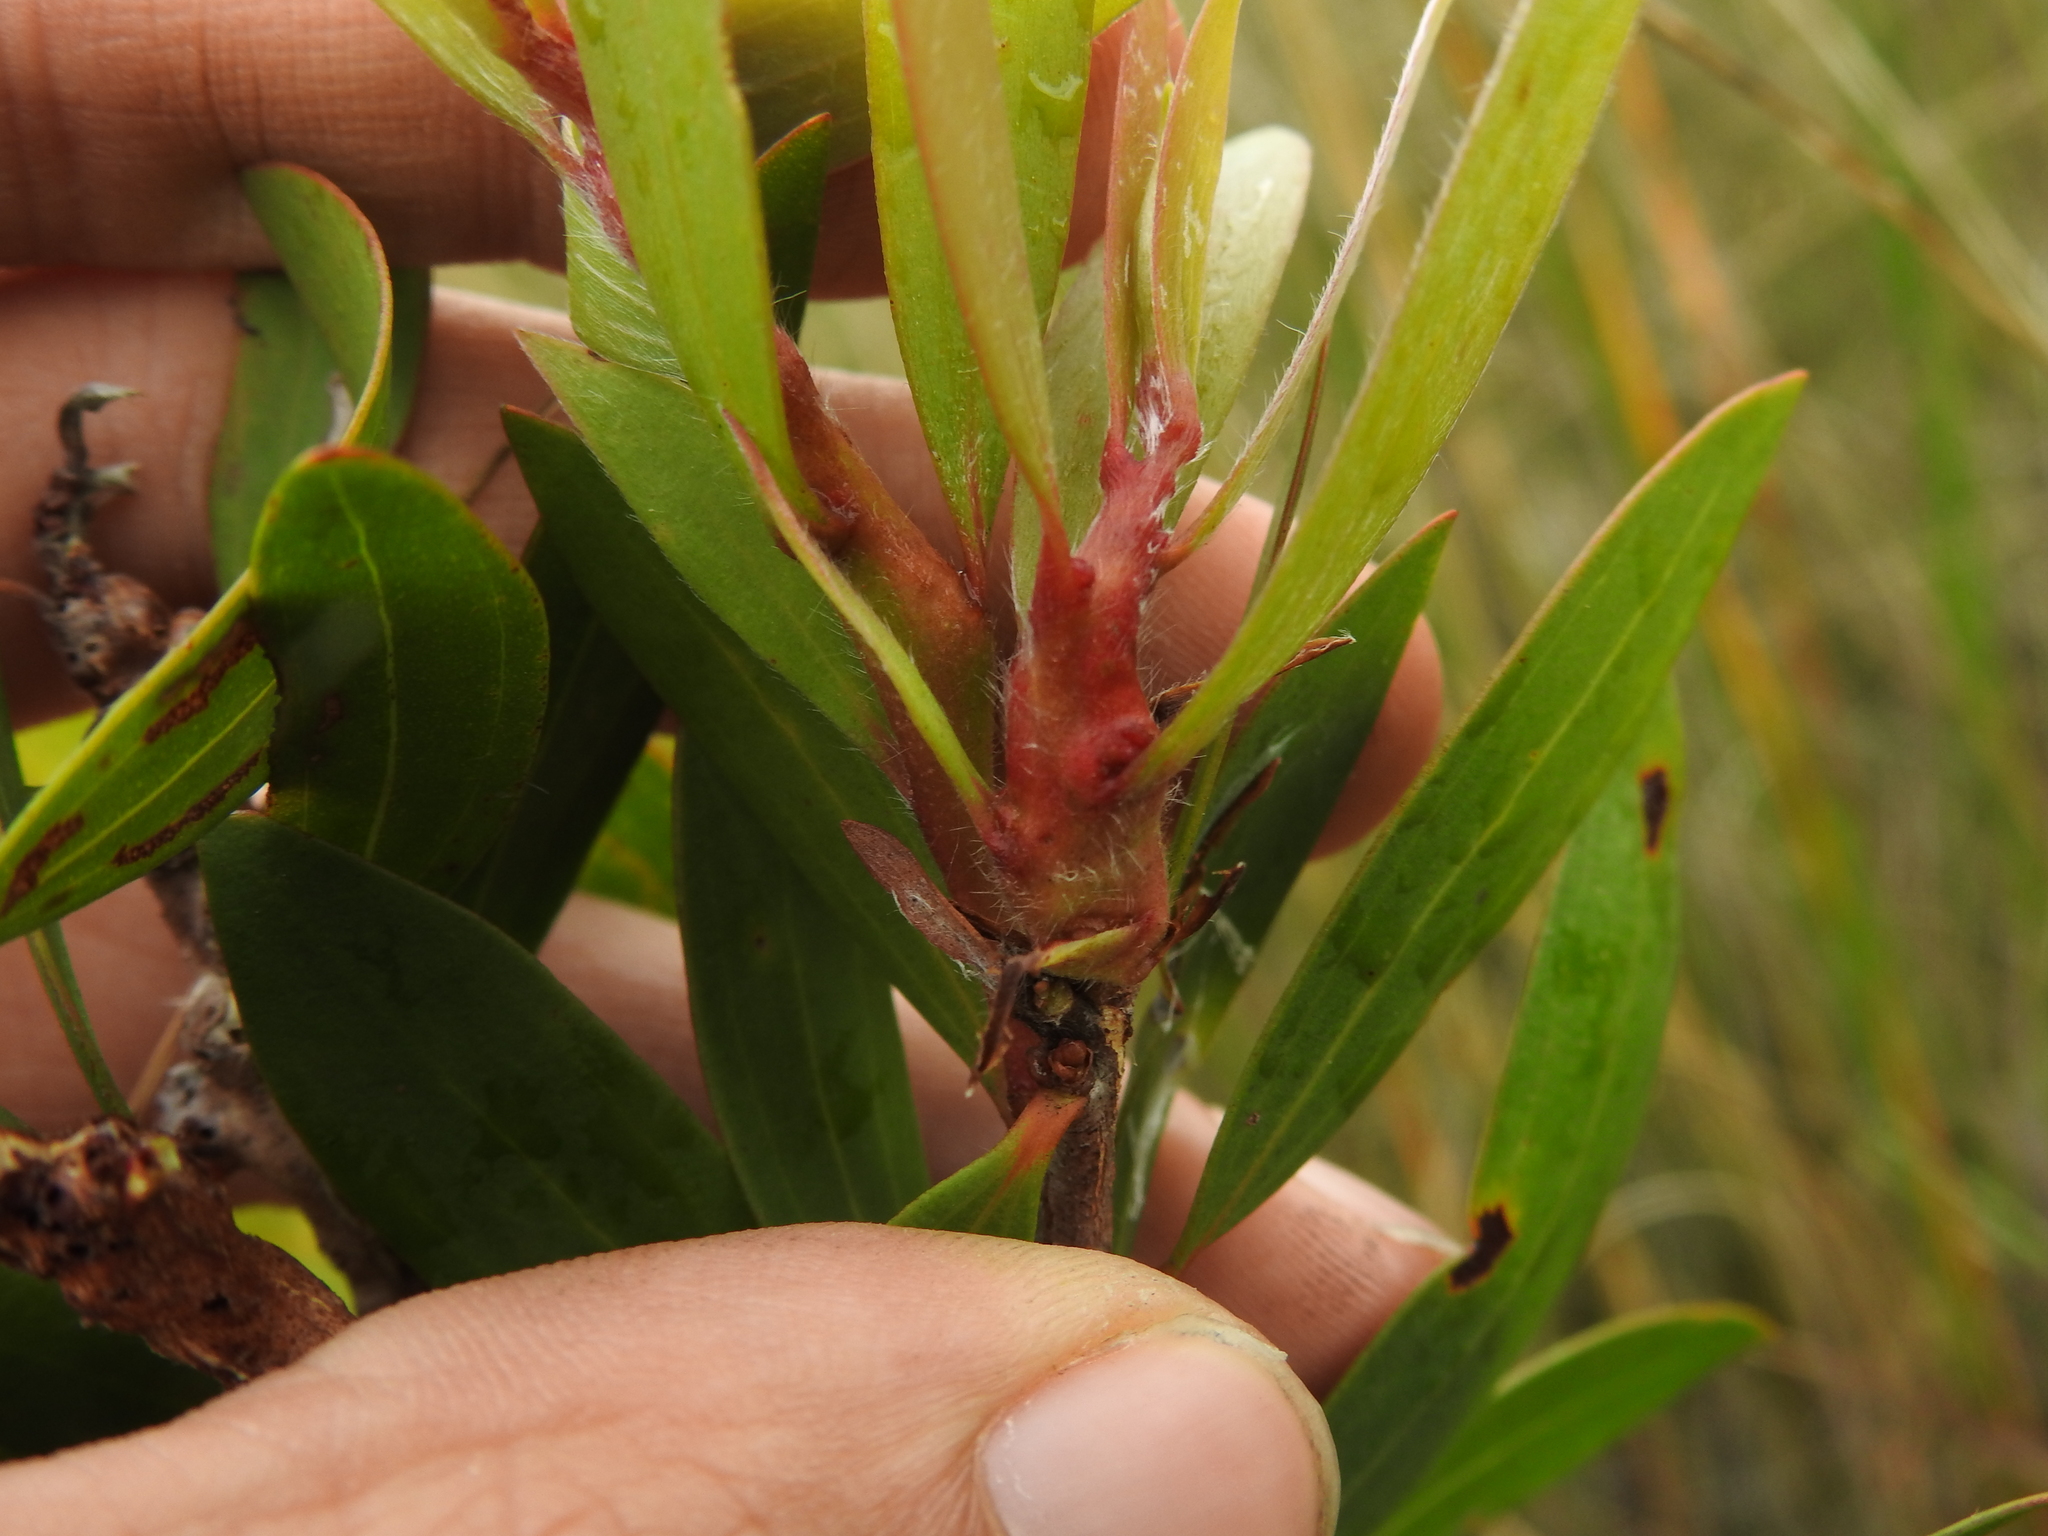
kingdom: Animalia
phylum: Arthropoda
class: Insecta
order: Diptera
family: Cecidomyiidae
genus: Lophodiplosis
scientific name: Lophodiplosis trifida
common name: Melaleuca gall midge
